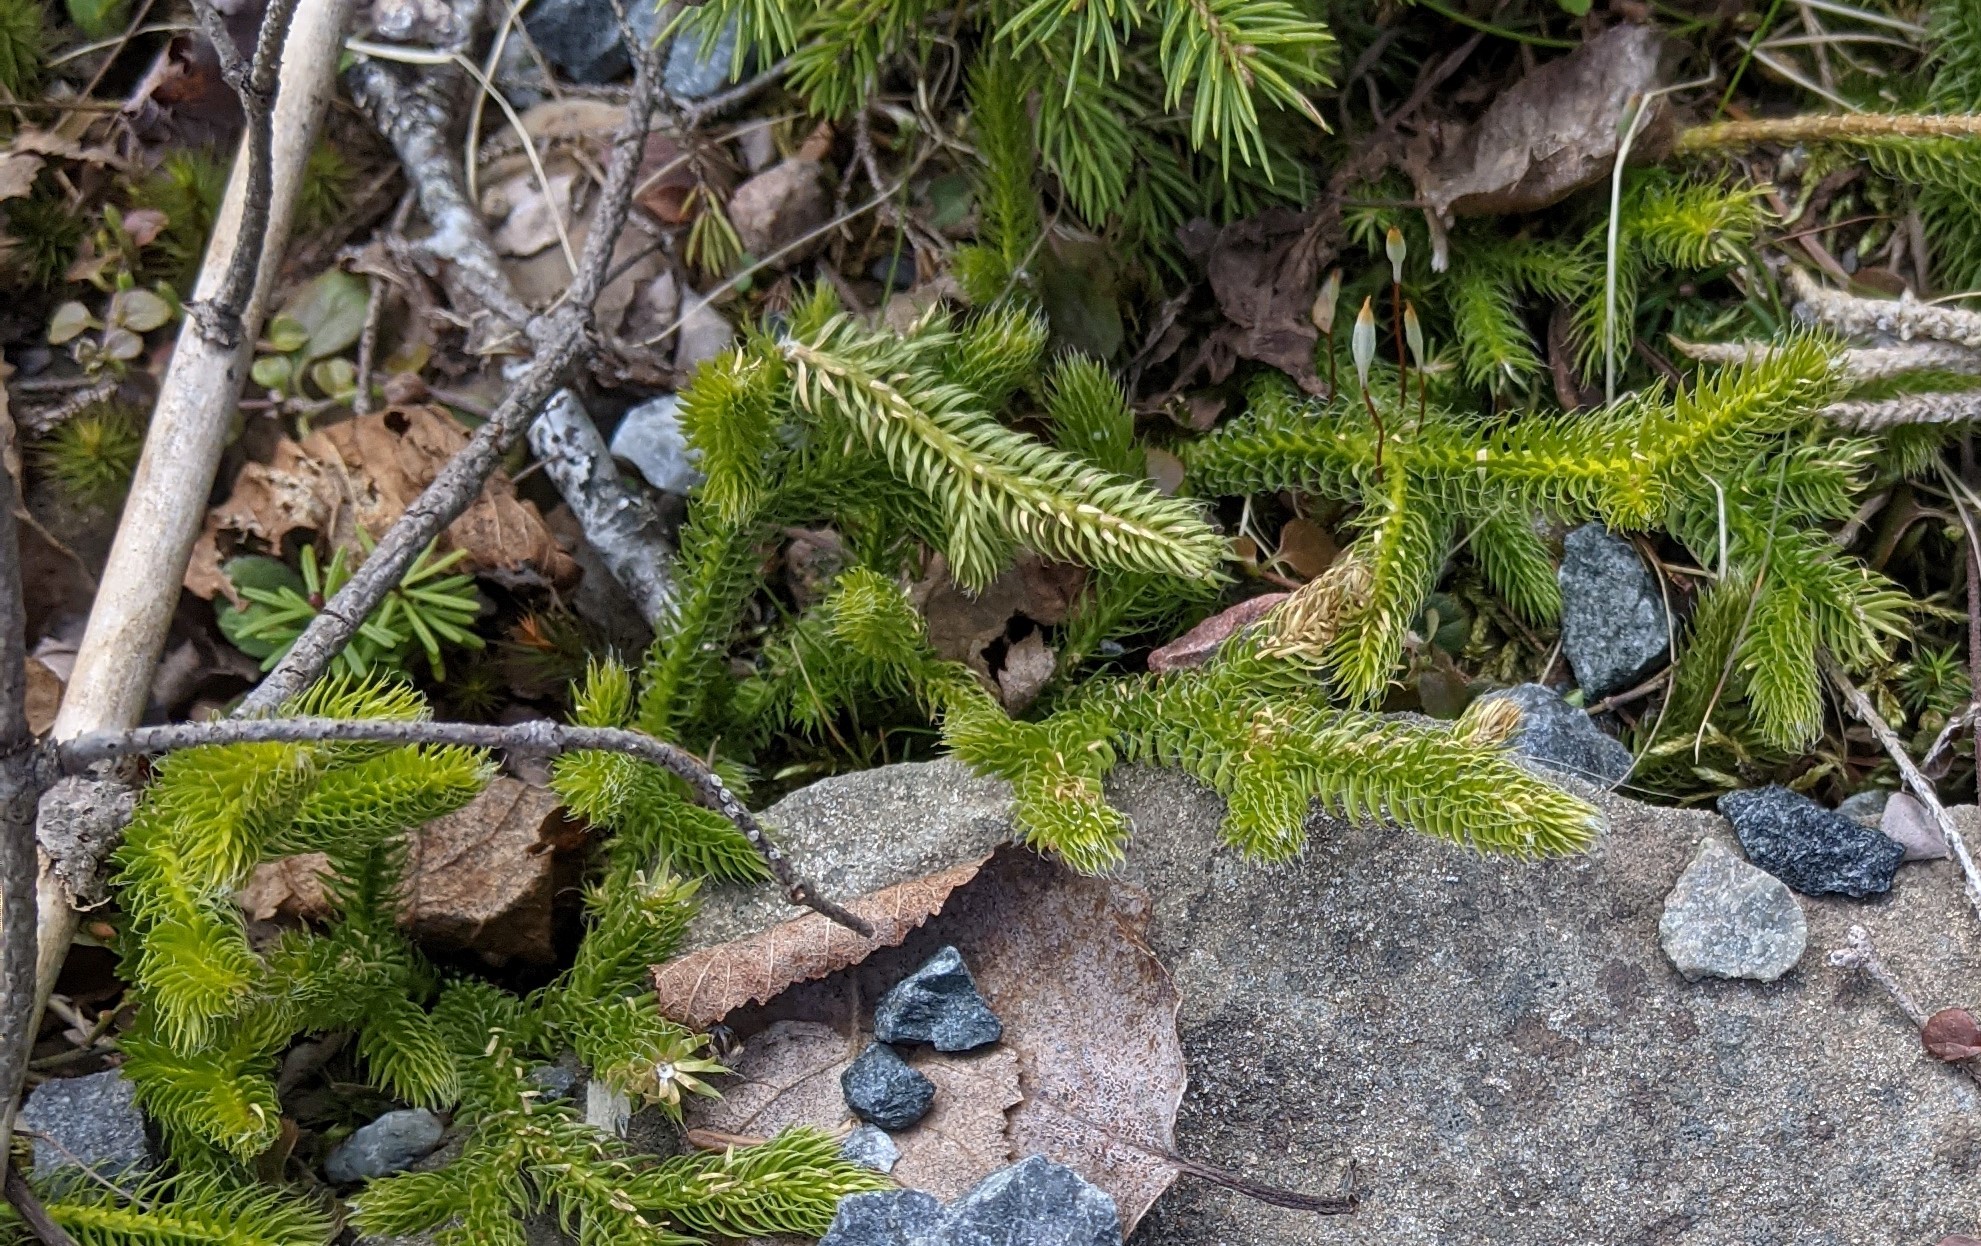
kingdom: Plantae
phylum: Tracheophyta
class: Lycopodiopsida
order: Lycopodiales
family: Lycopodiaceae
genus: Lycopodium
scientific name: Lycopodium clavatum
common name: Stag's-horn clubmoss
